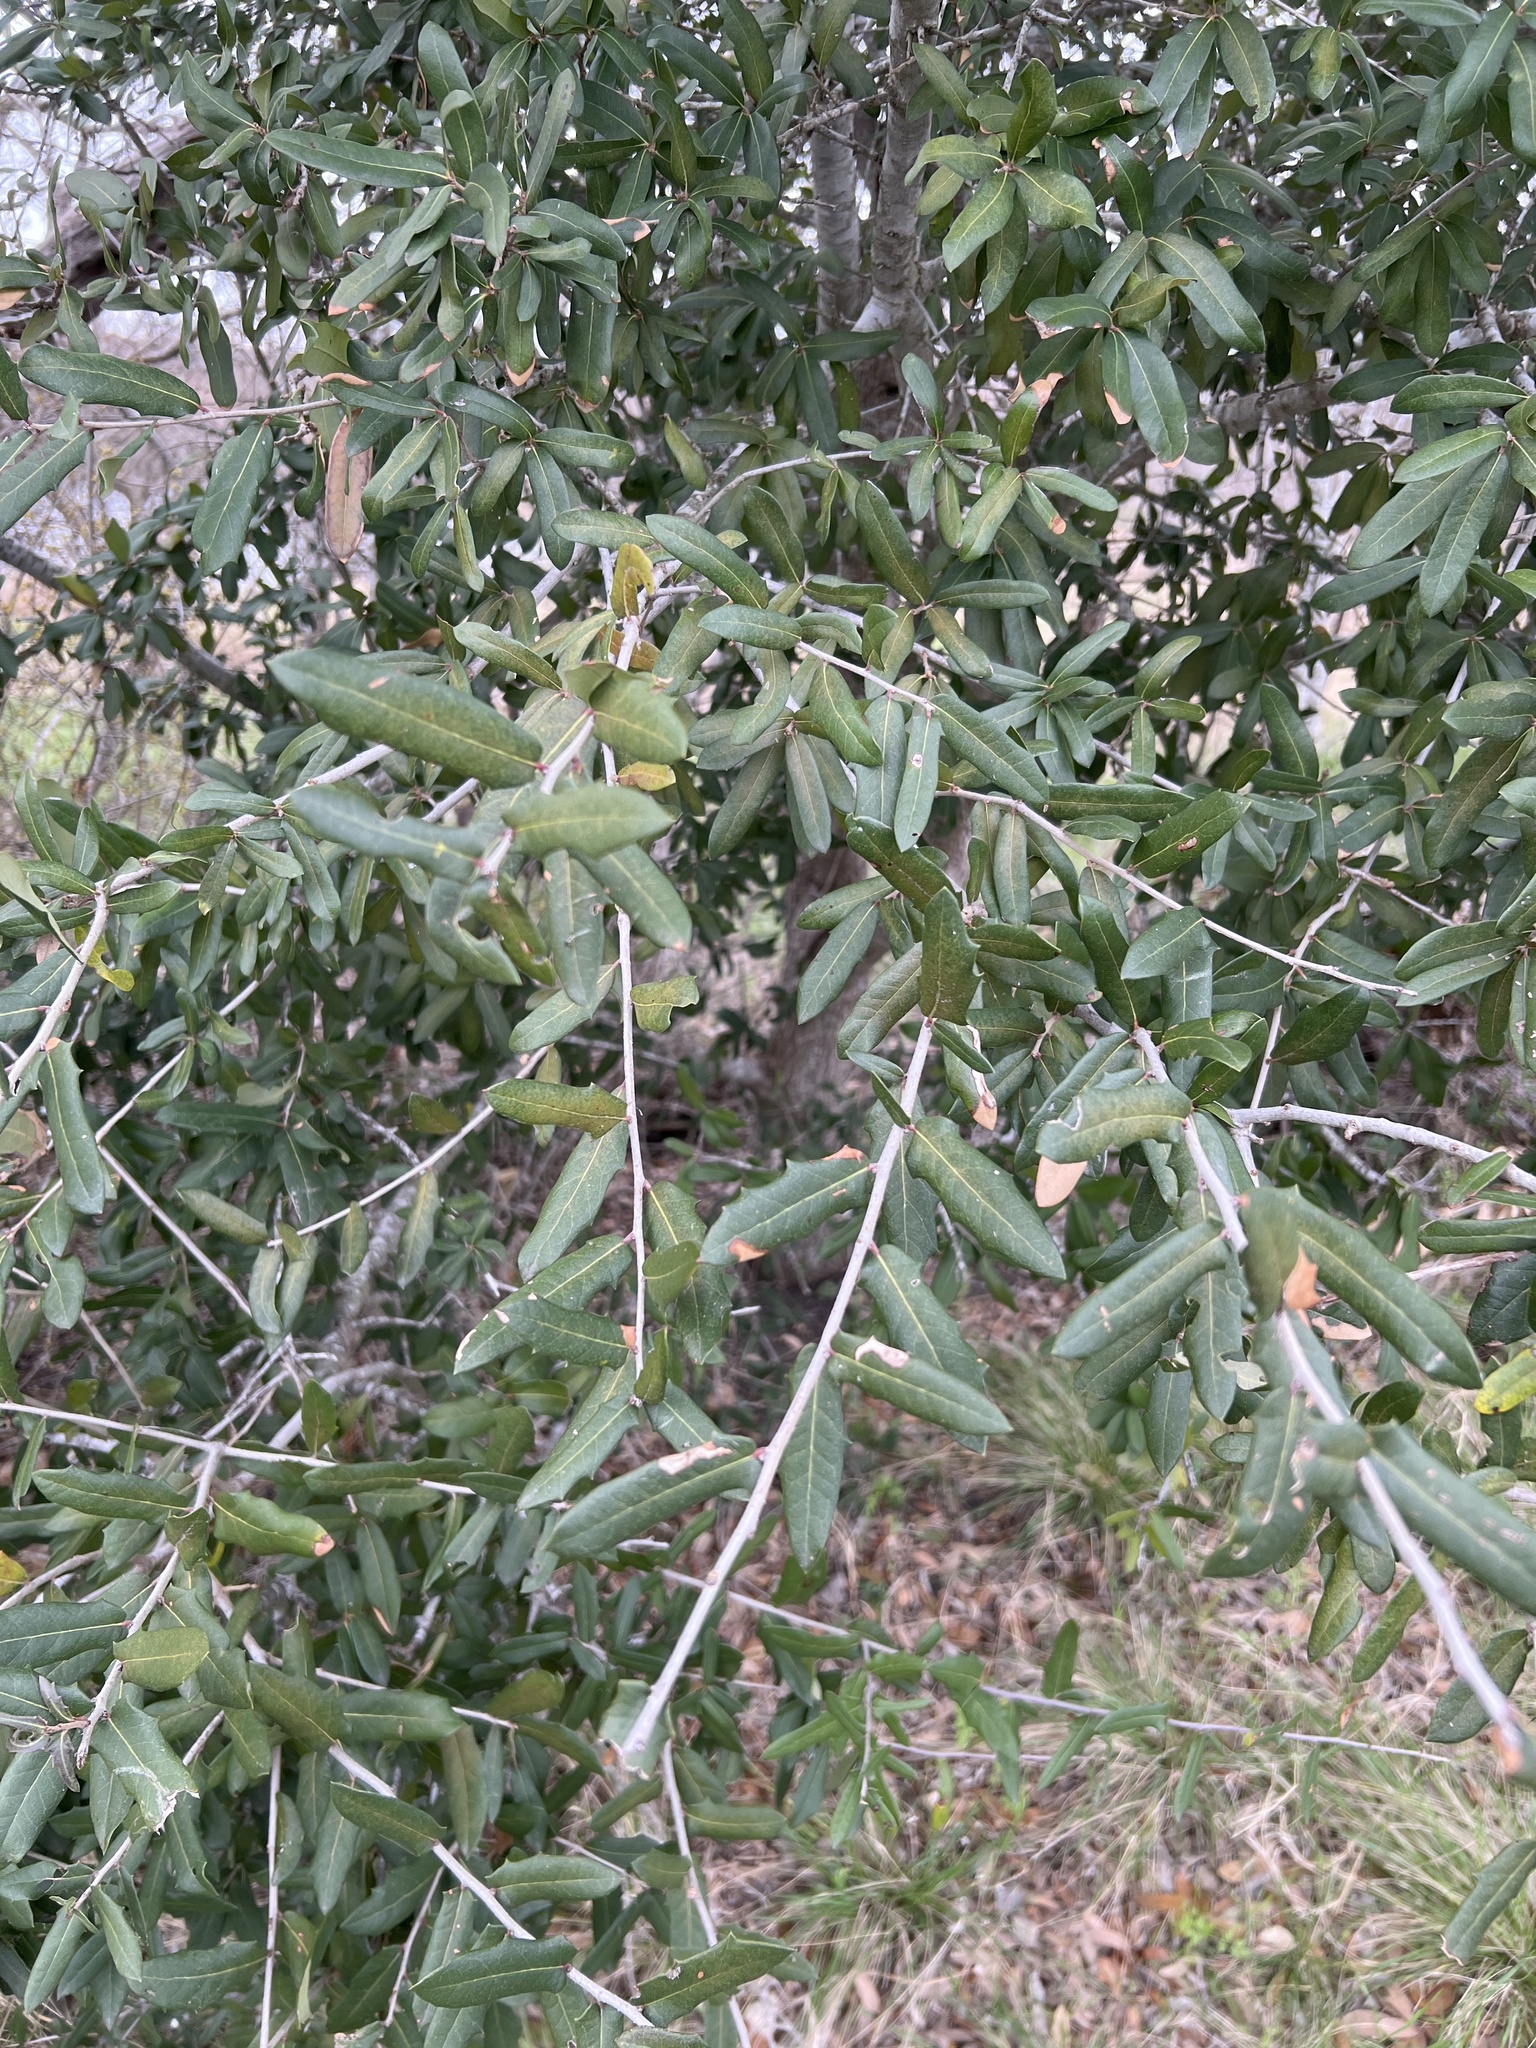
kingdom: Plantae
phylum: Tracheophyta
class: Magnoliopsida
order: Fagales
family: Fagaceae
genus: Quercus
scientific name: Quercus fusiformis
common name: Texas live oak
